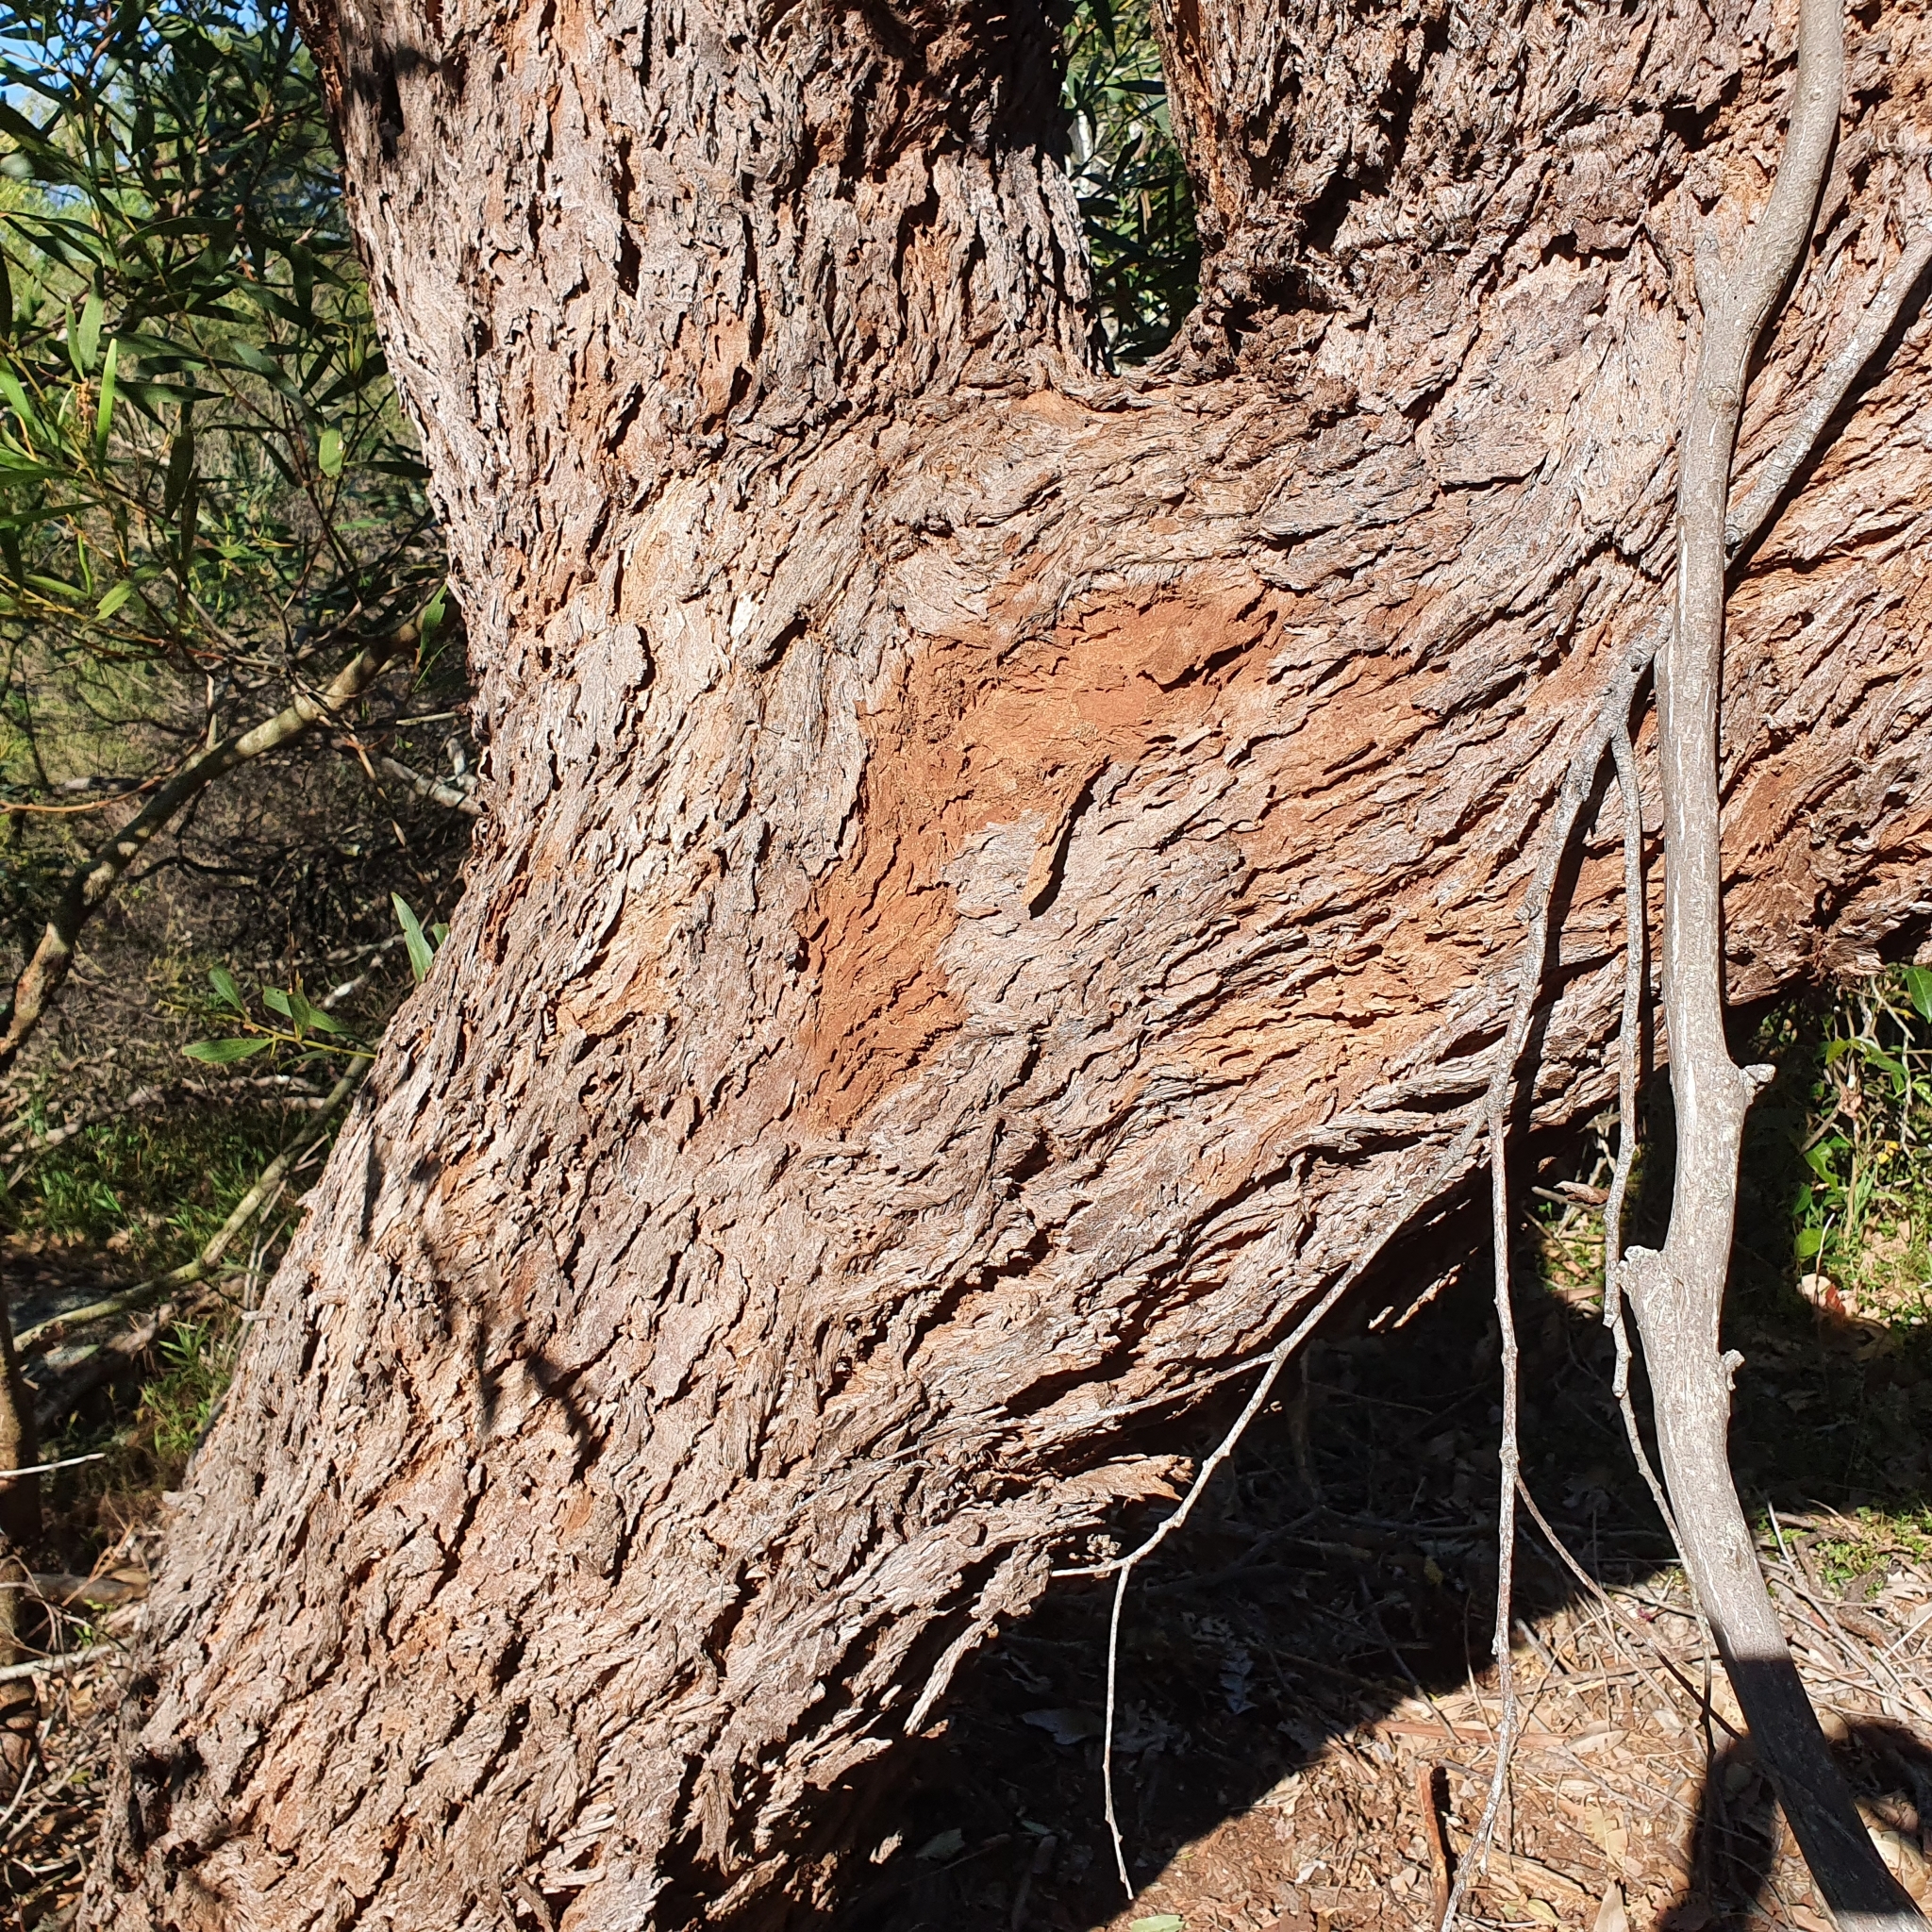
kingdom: Plantae
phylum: Tracheophyta
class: Magnoliopsida
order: Myrtales
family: Myrtaceae
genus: Eucalyptus
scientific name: Eucalyptus botryoides
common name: Bangalay
